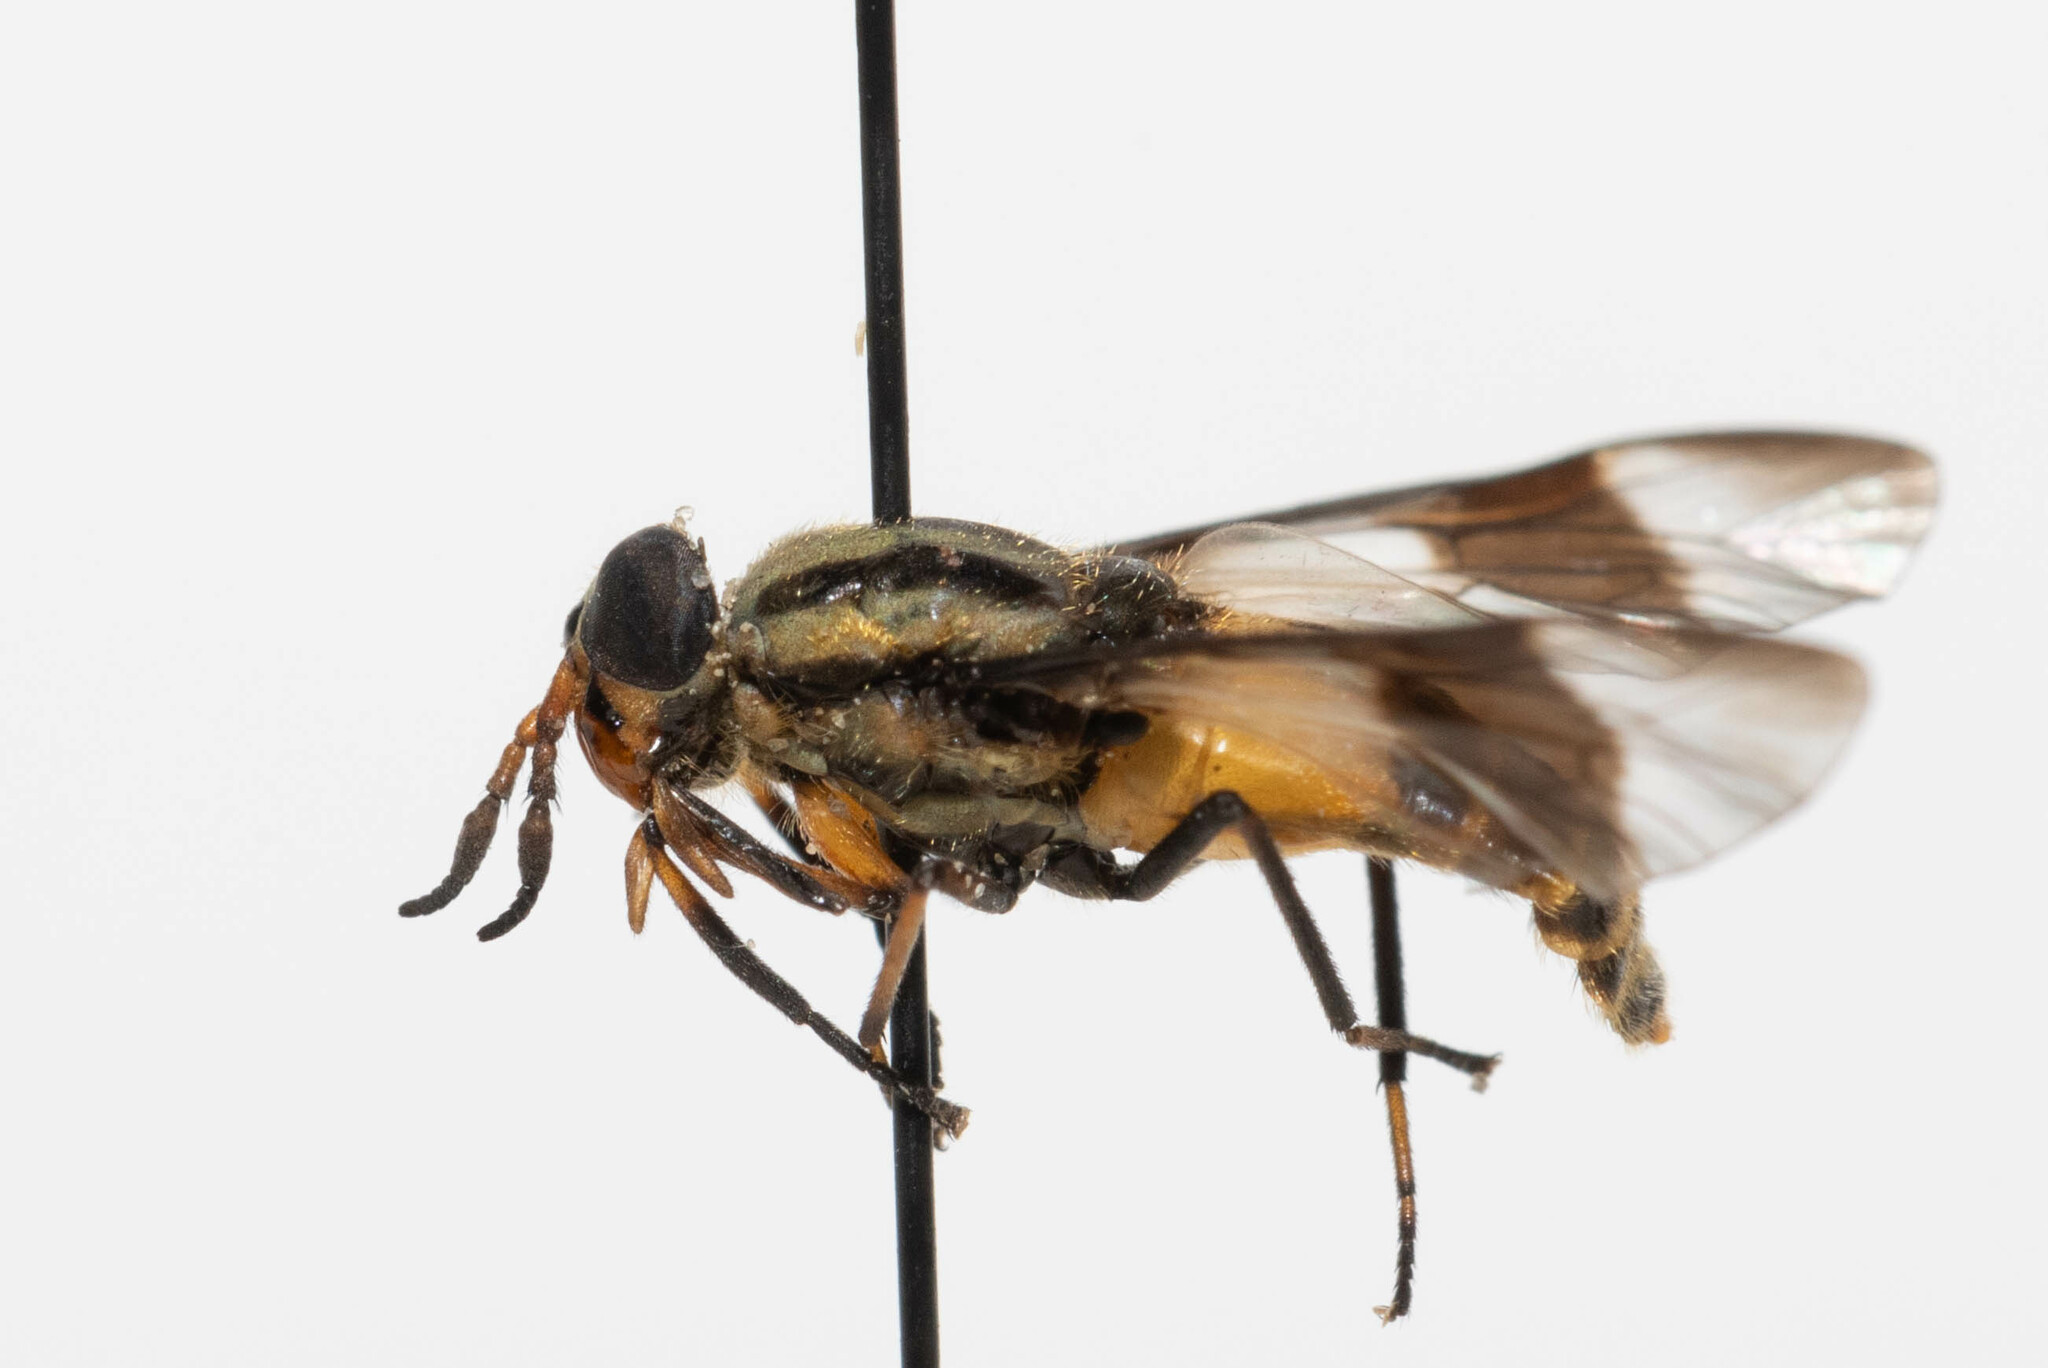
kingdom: Animalia
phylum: Arthropoda
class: Insecta
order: Diptera
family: Tabanidae
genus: Chrysops
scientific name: Chrysops geminatus
